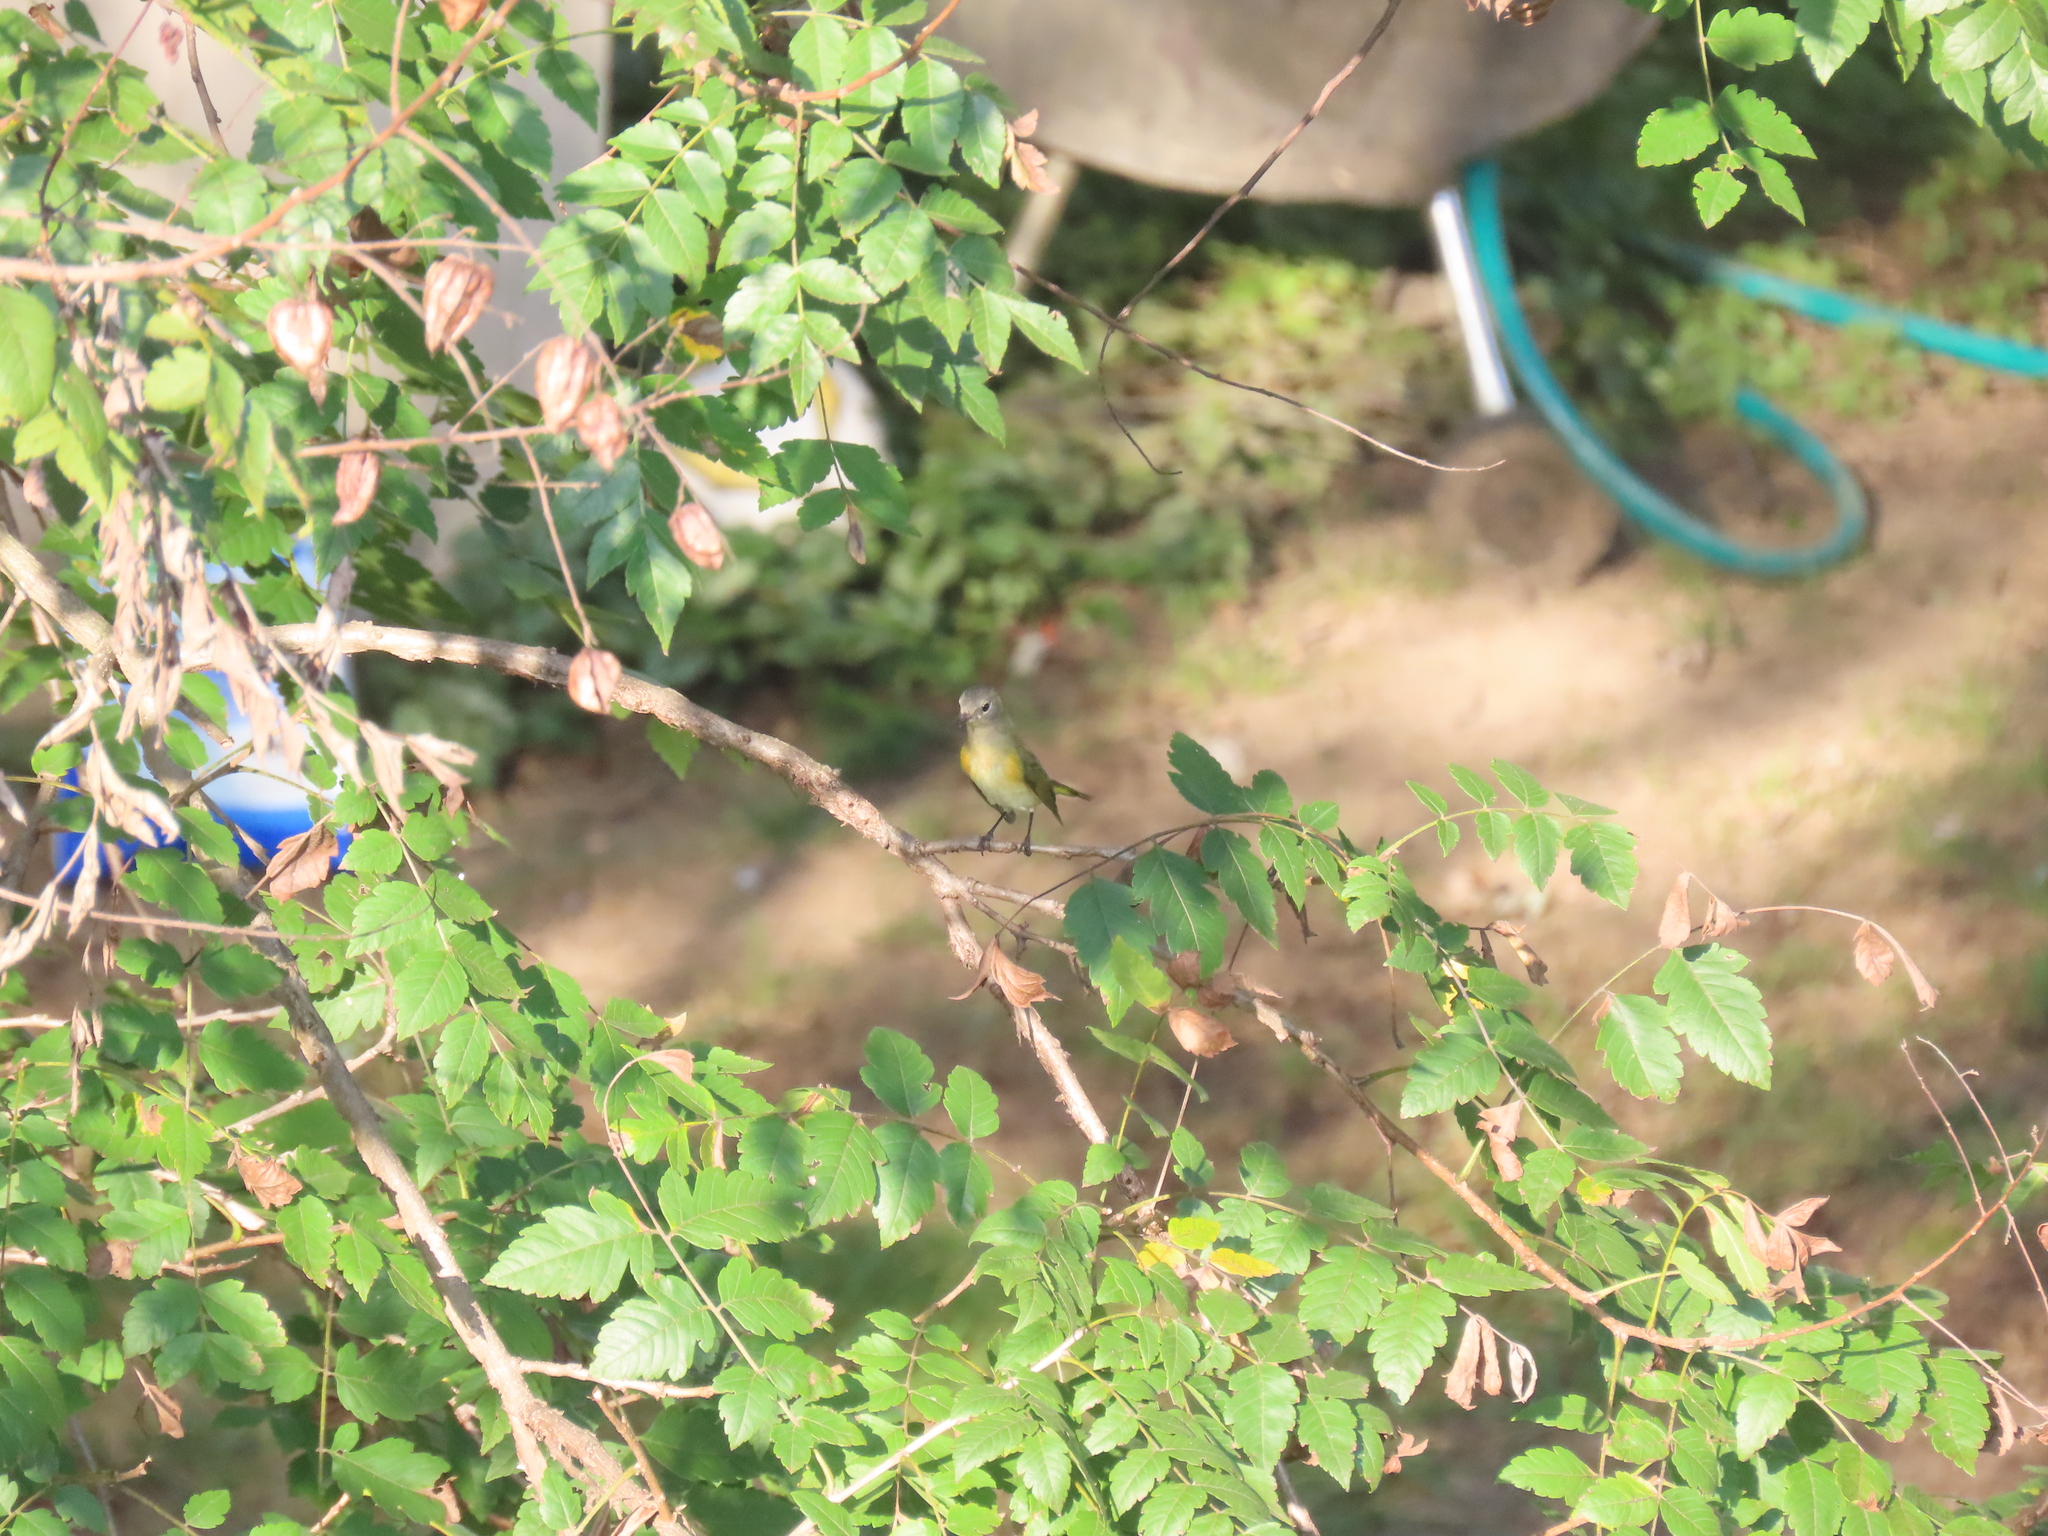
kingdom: Animalia
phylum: Chordata
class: Aves
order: Passeriformes
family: Parulidae
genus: Setophaga
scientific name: Setophaga ruticilla
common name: American redstart
